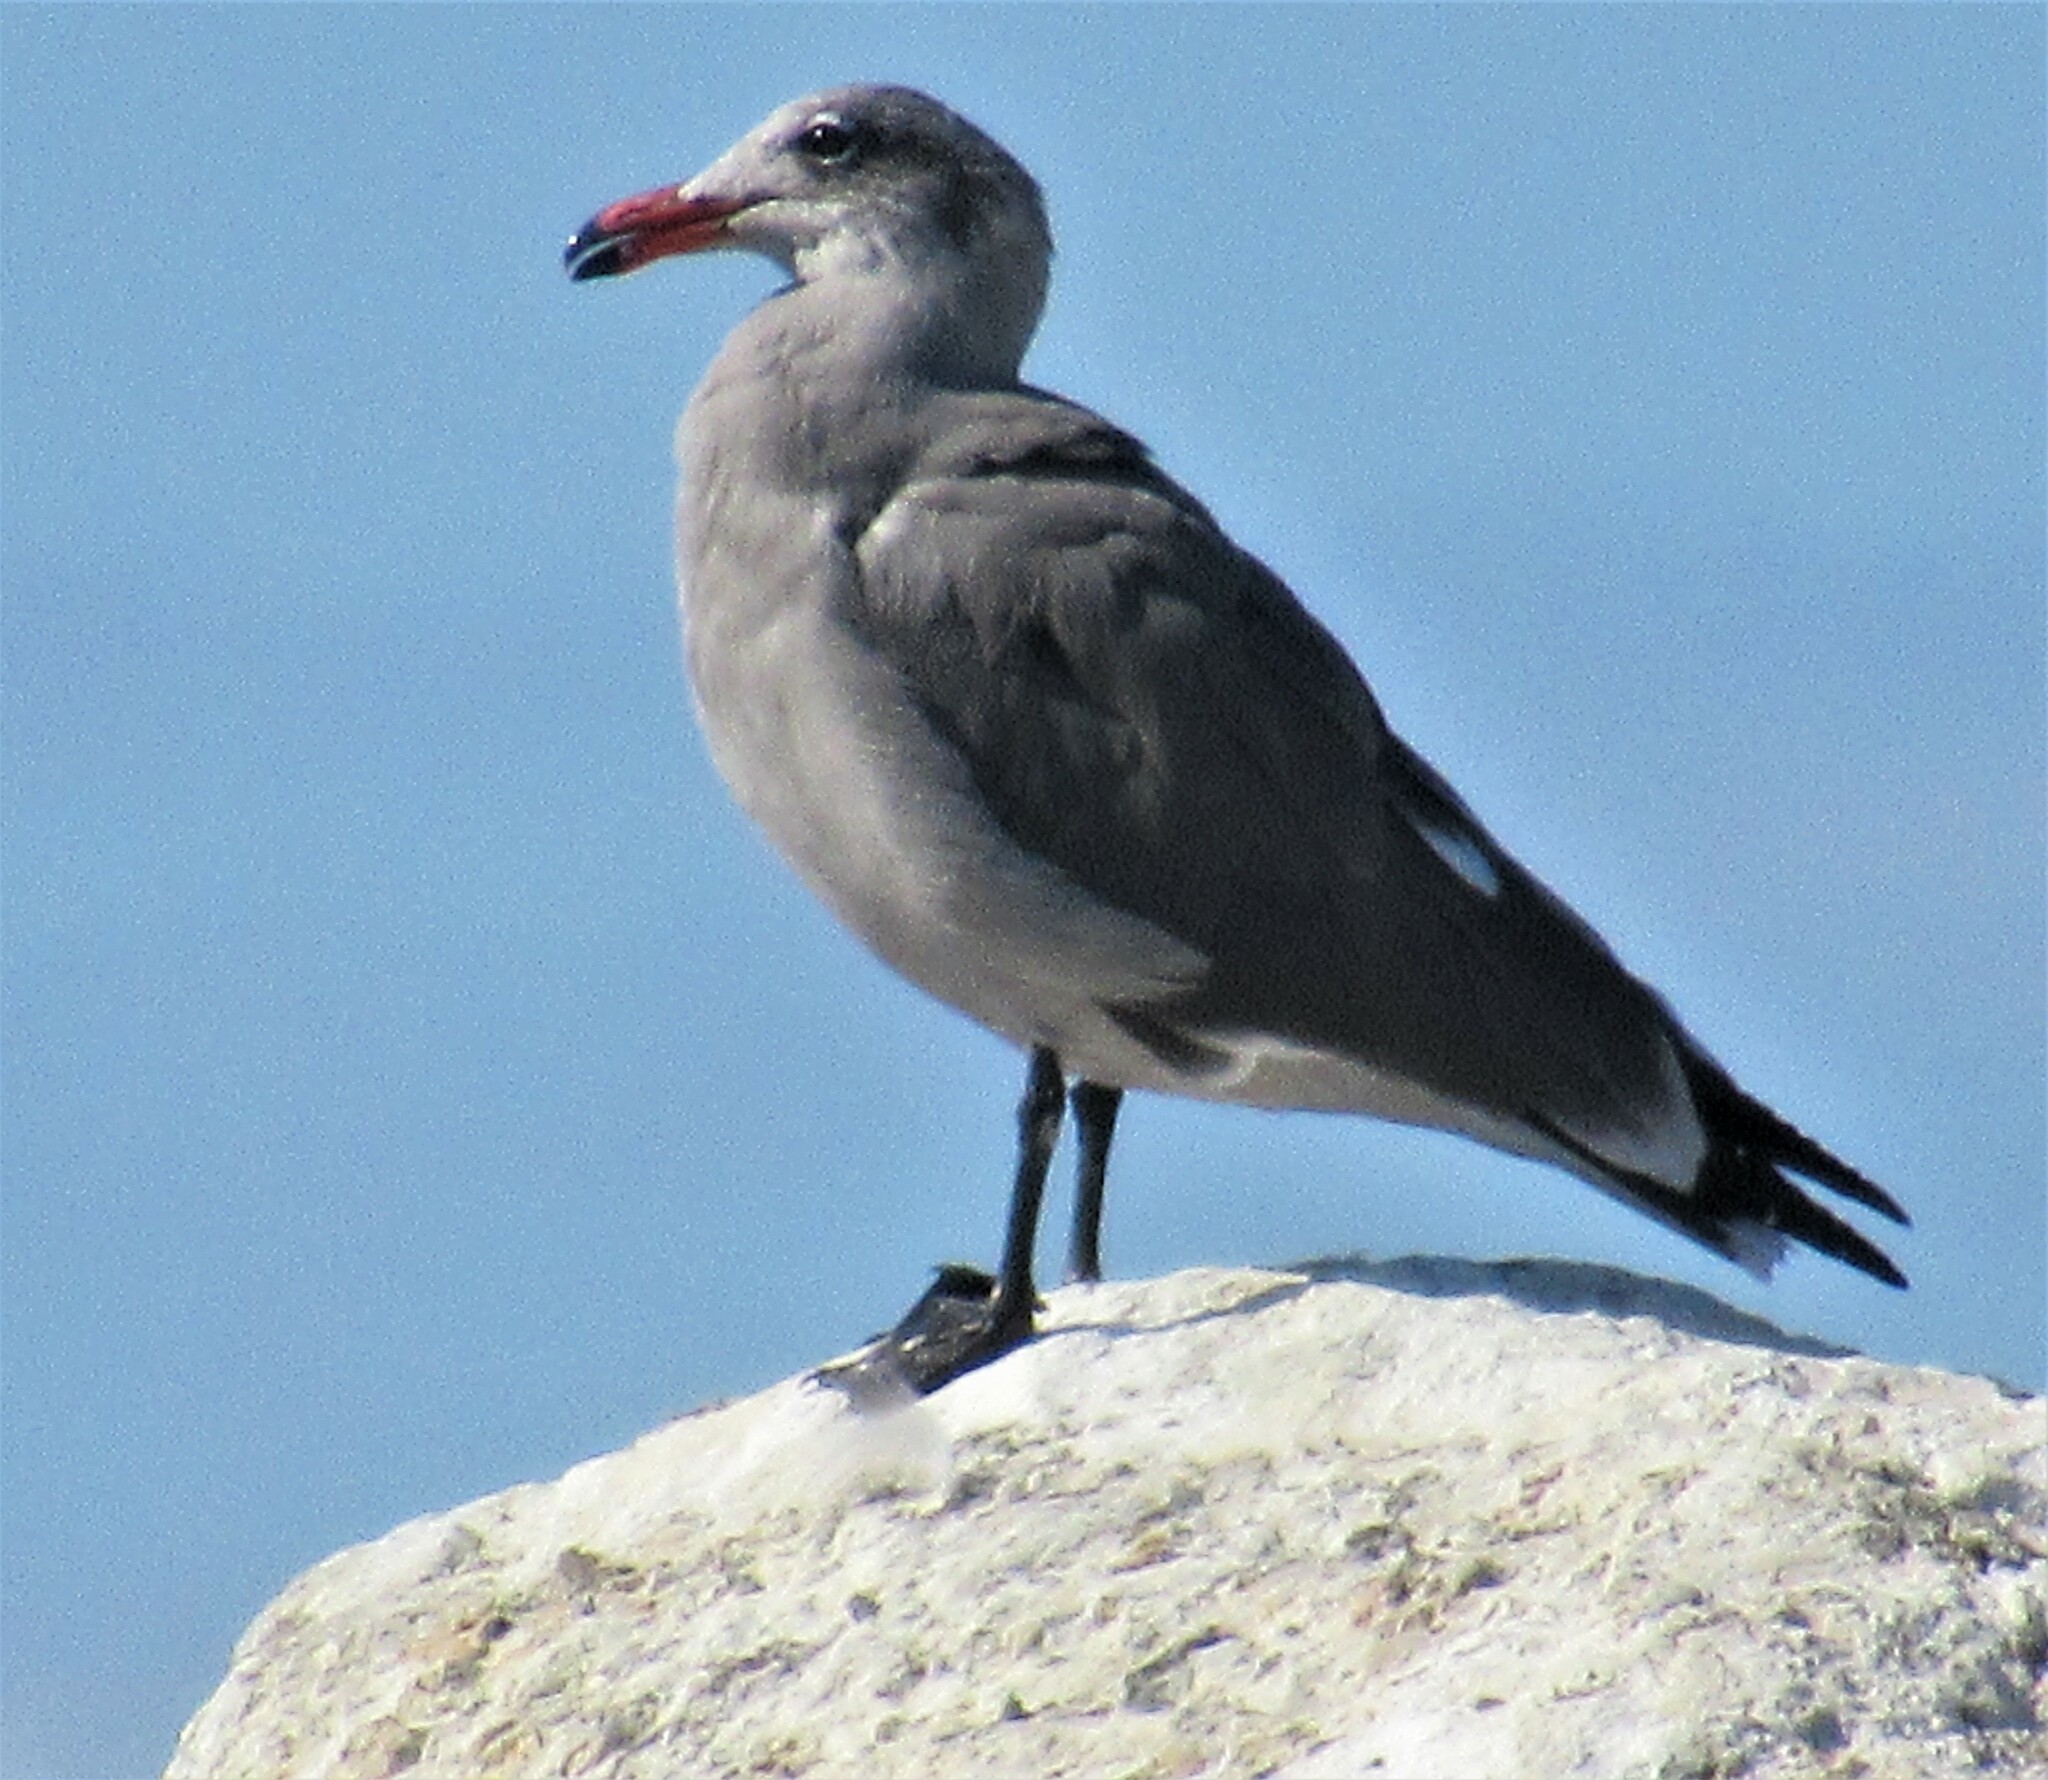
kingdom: Animalia
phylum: Chordata
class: Aves
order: Charadriiformes
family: Laridae
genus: Larus
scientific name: Larus heermanni
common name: Heermann's gull
